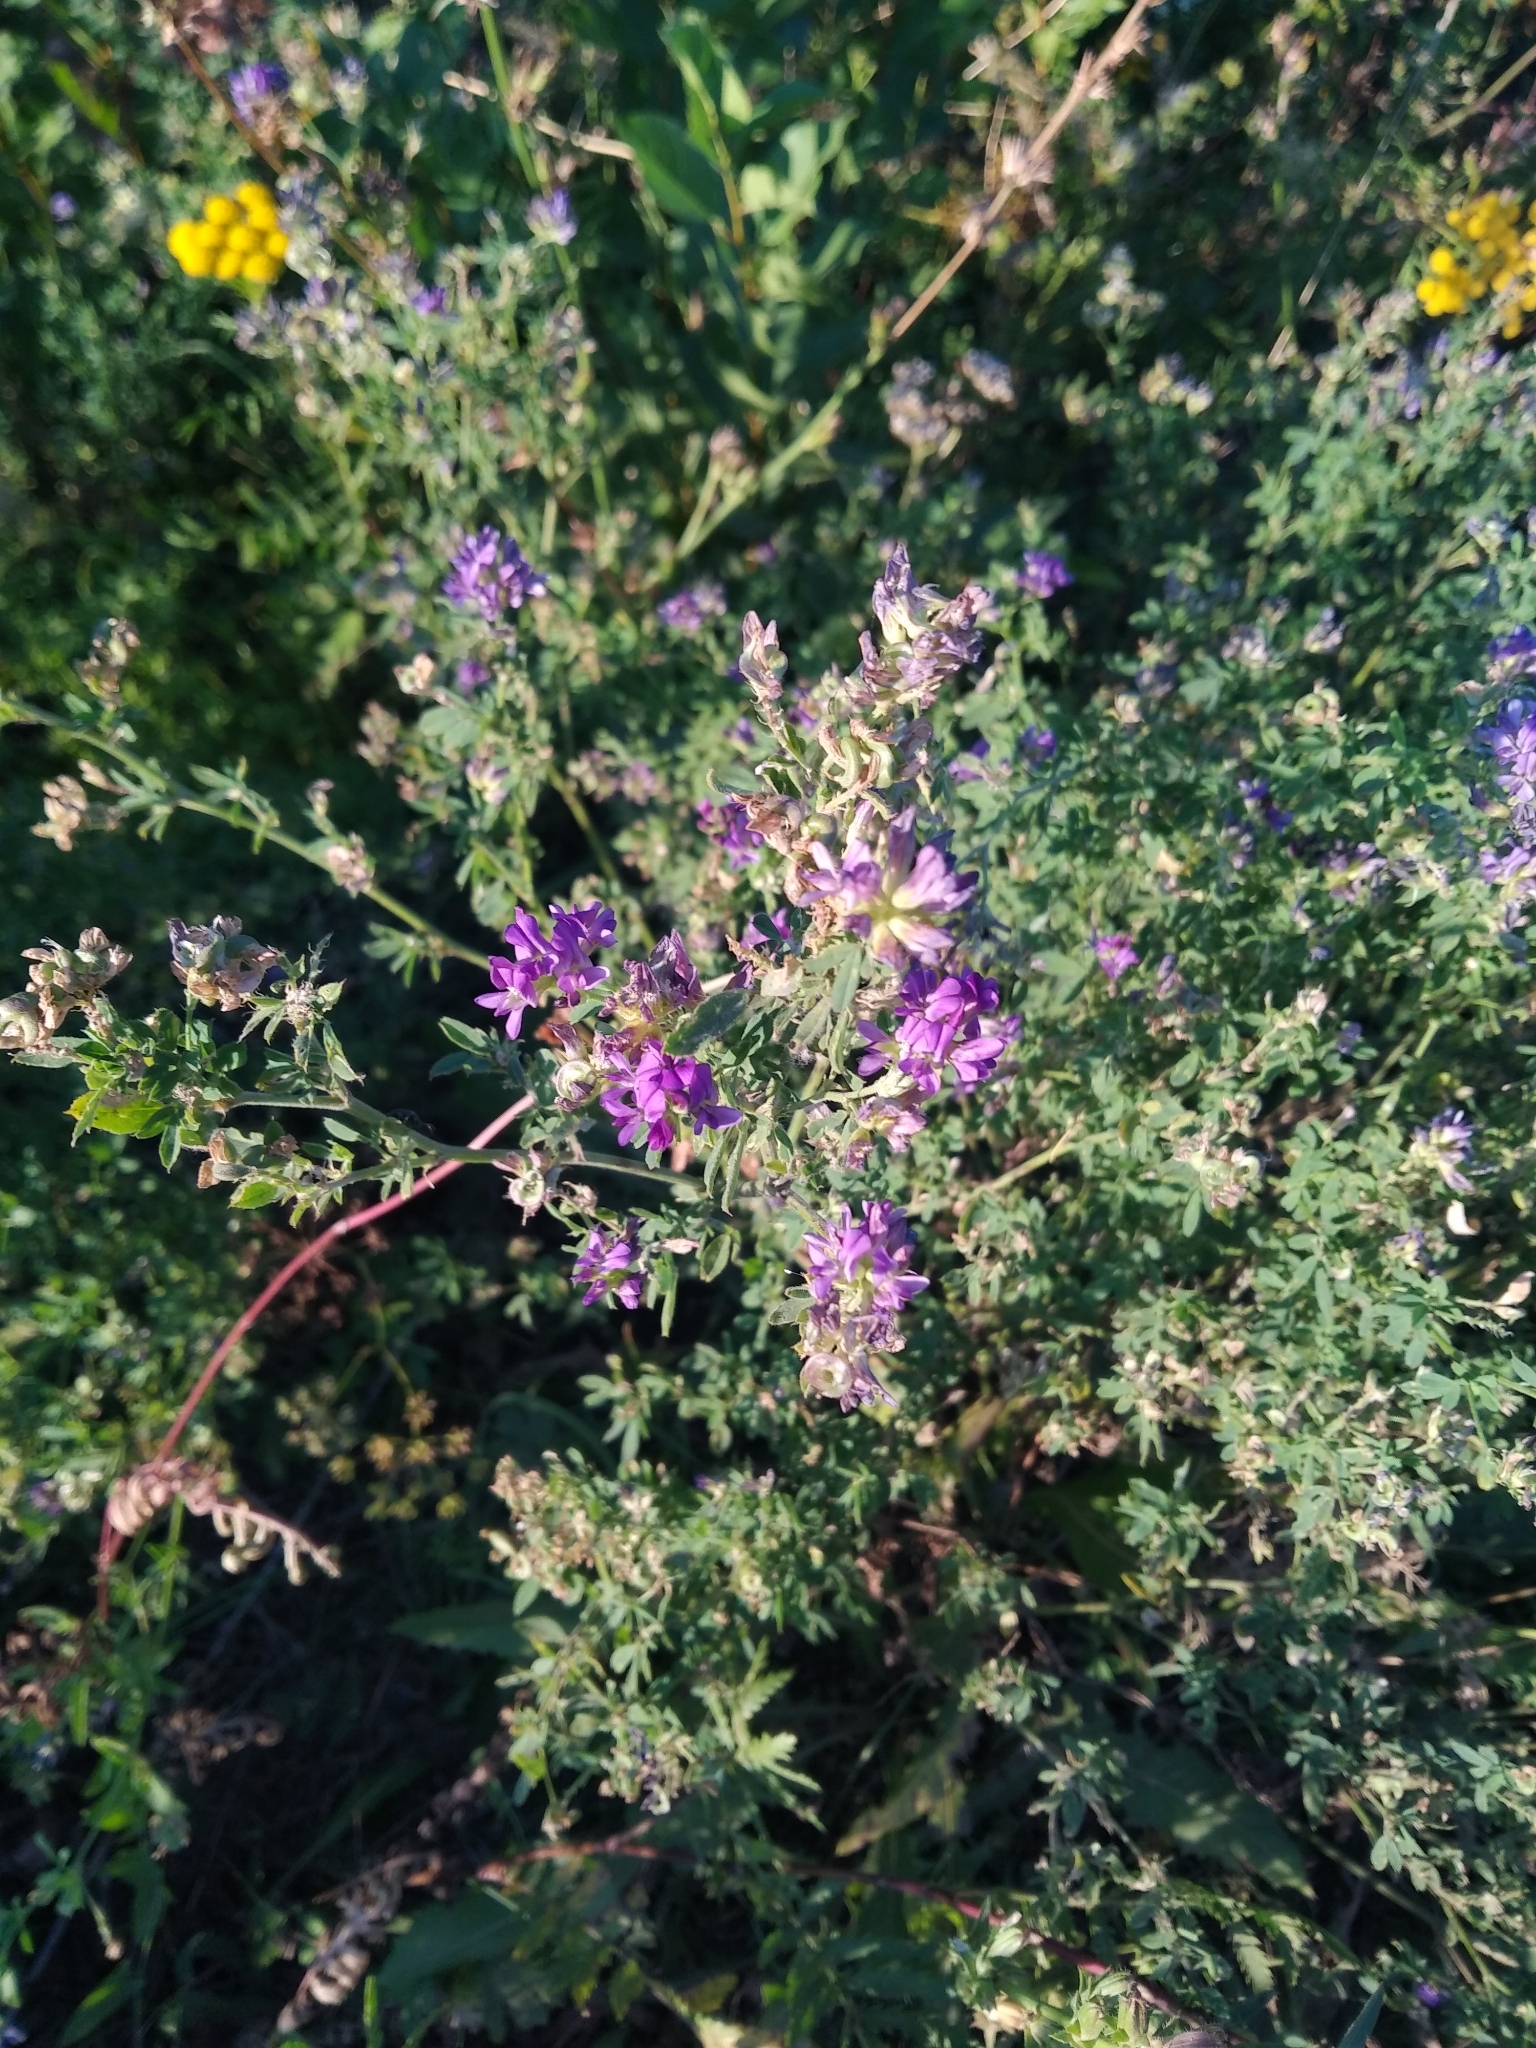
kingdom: Plantae
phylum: Tracheophyta
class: Magnoliopsida
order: Fabales
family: Fabaceae
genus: Medicago
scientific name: Medicago sativa
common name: Alfalfa
